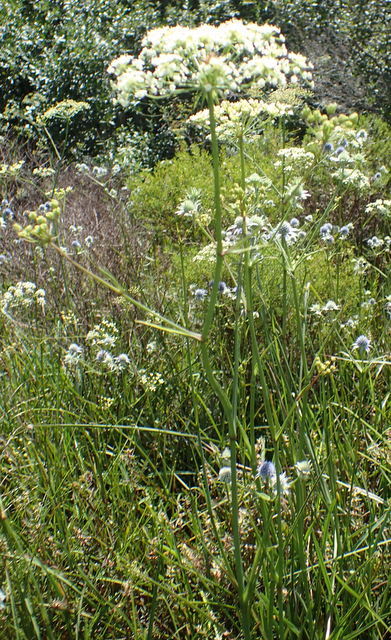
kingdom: Plantae
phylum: Tracheophyta
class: Magnoliopsida
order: Apiales
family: Apiaceae
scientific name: Apiaceae
